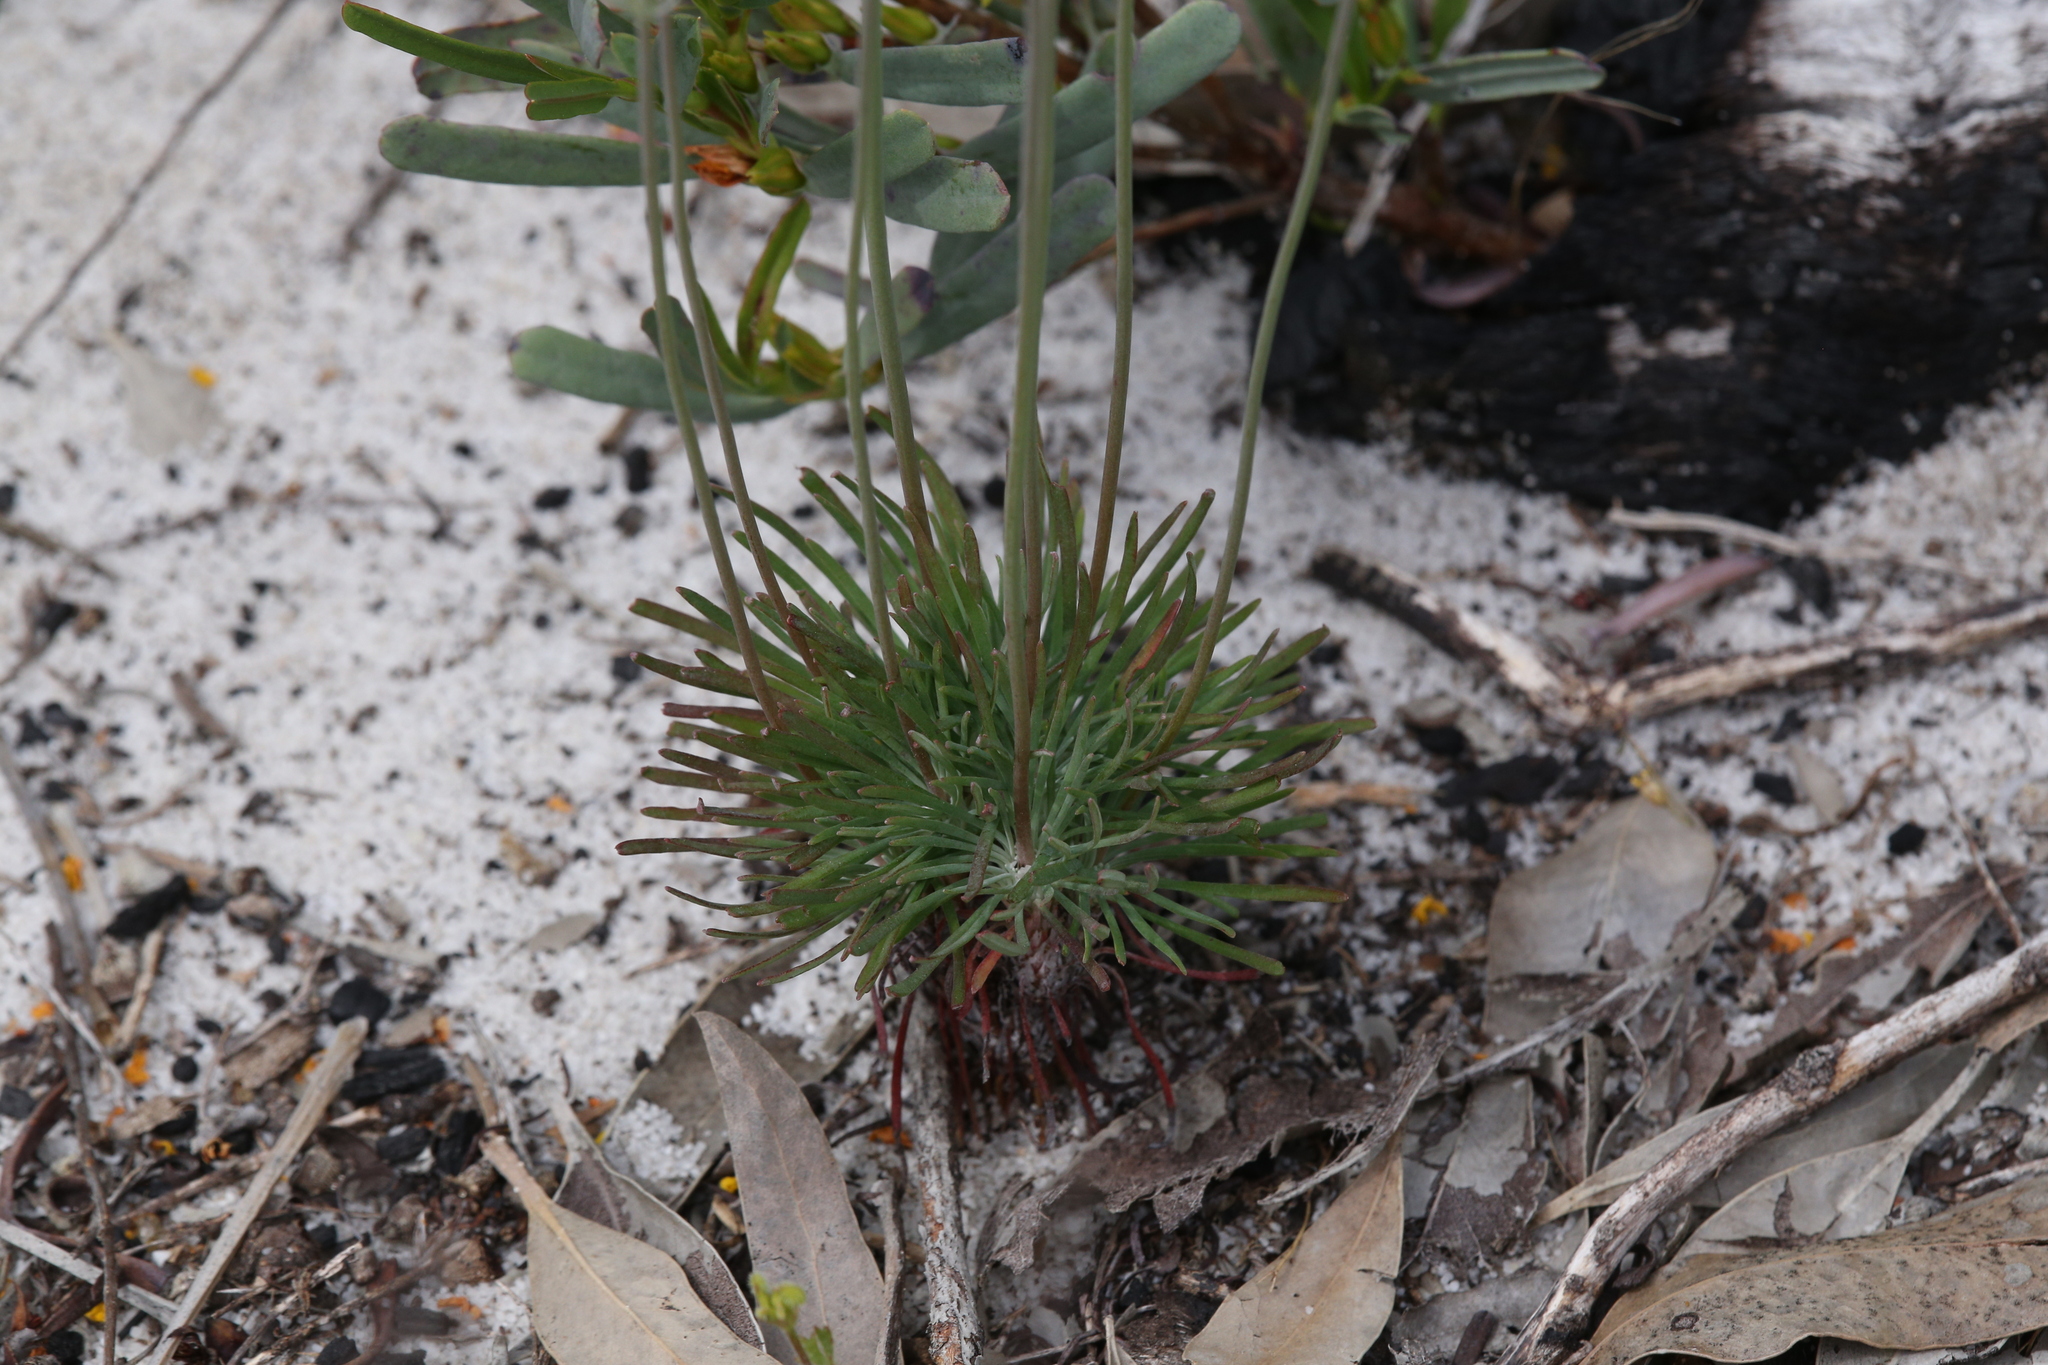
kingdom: Plantae
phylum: Tracheophyta
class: Magnoliopsida
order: Asterales
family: Stylidiaceae
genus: Stylidium
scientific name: Stylidium araeophyllum
